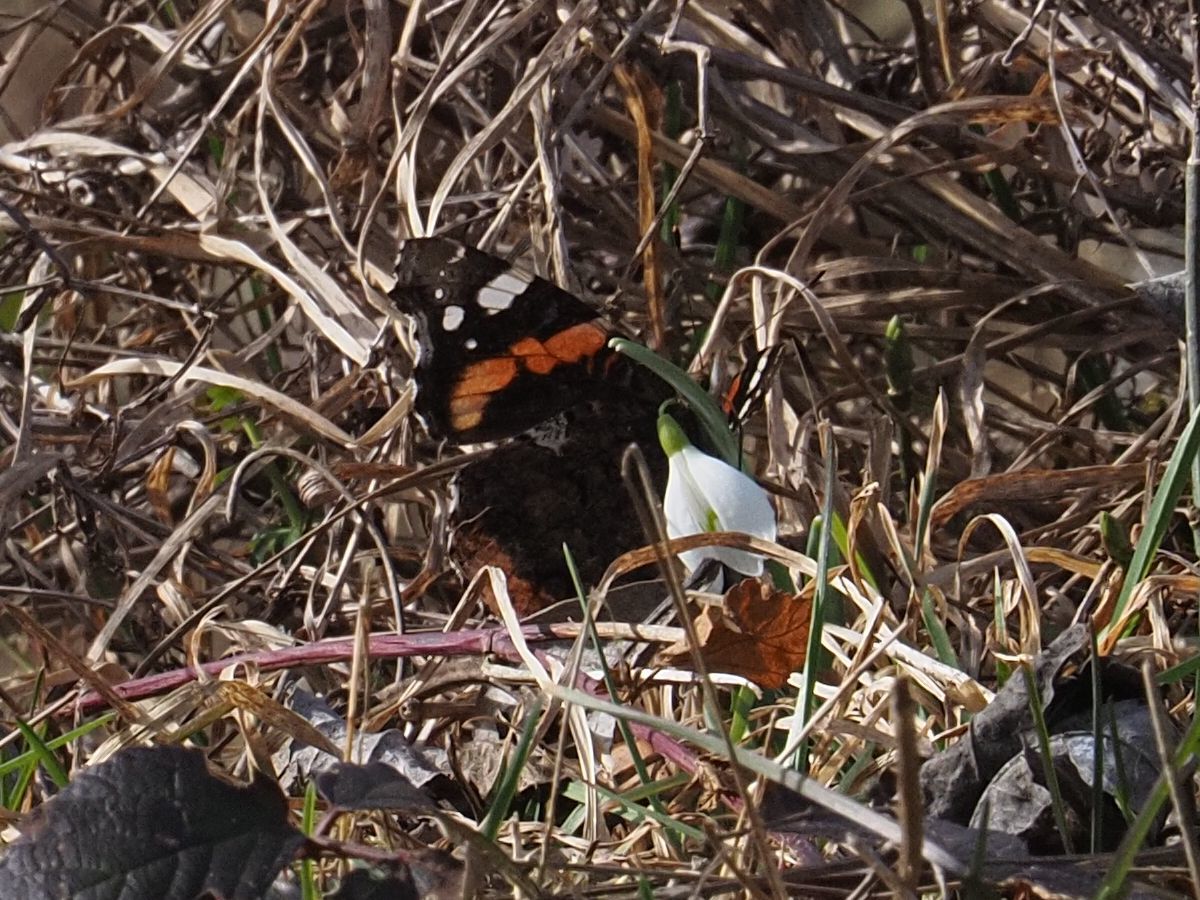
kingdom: Animalia
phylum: Arthropoda
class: Insecta
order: Lepidoptera
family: Nymphalidae
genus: Vanessa
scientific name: Vanessa atalanta
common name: Red admiral
